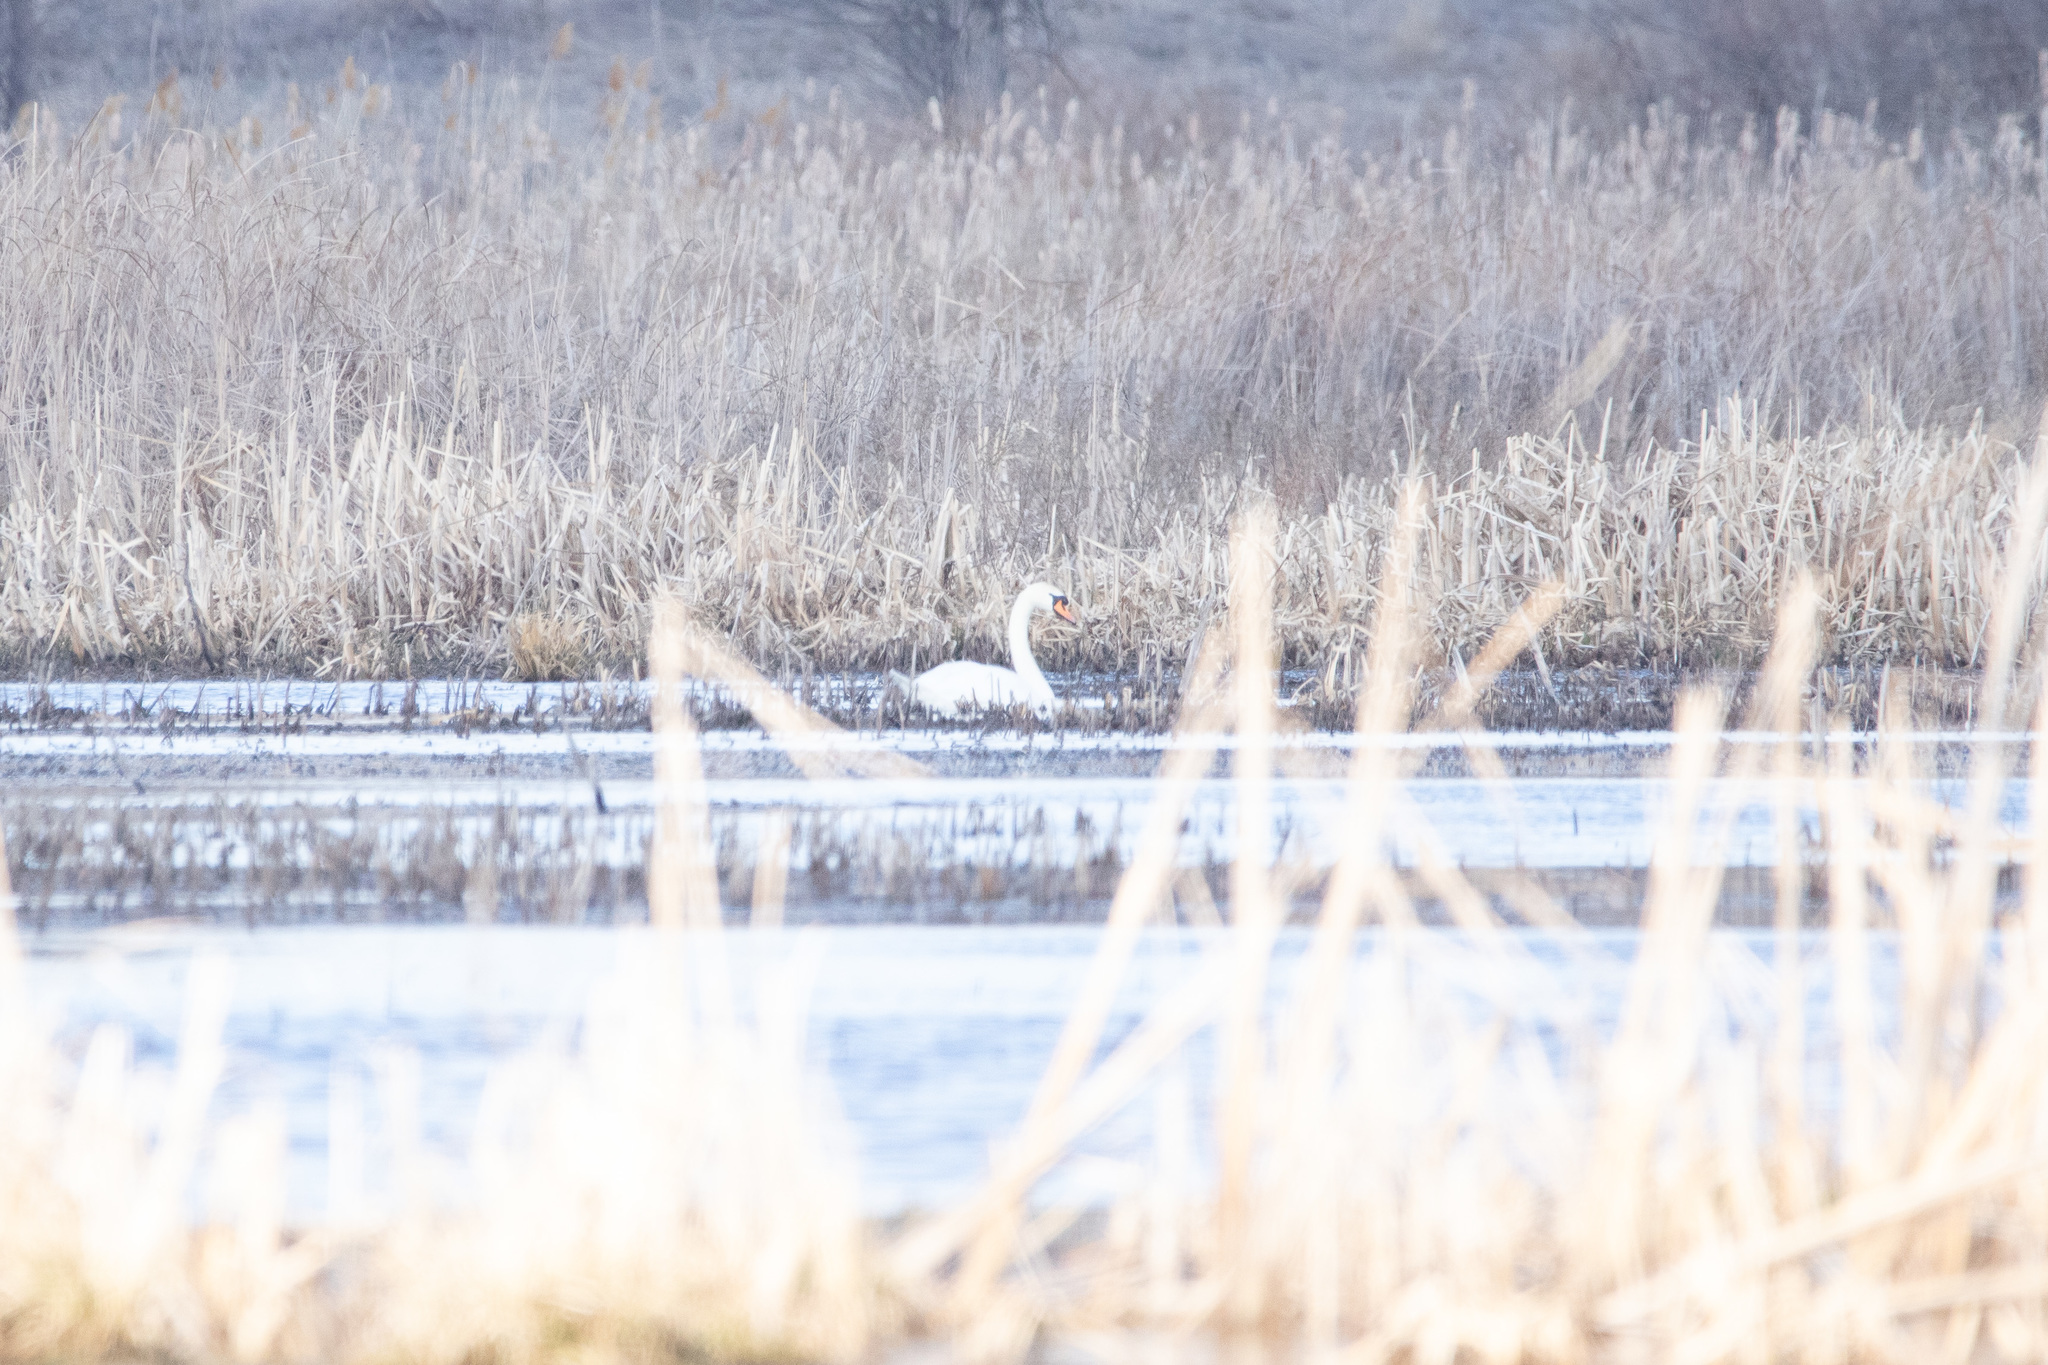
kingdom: Animalia
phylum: Chordata
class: Aves
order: Anseriformes
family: Anatidae
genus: Cygnus
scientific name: Cygnus olor
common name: Mute swan
